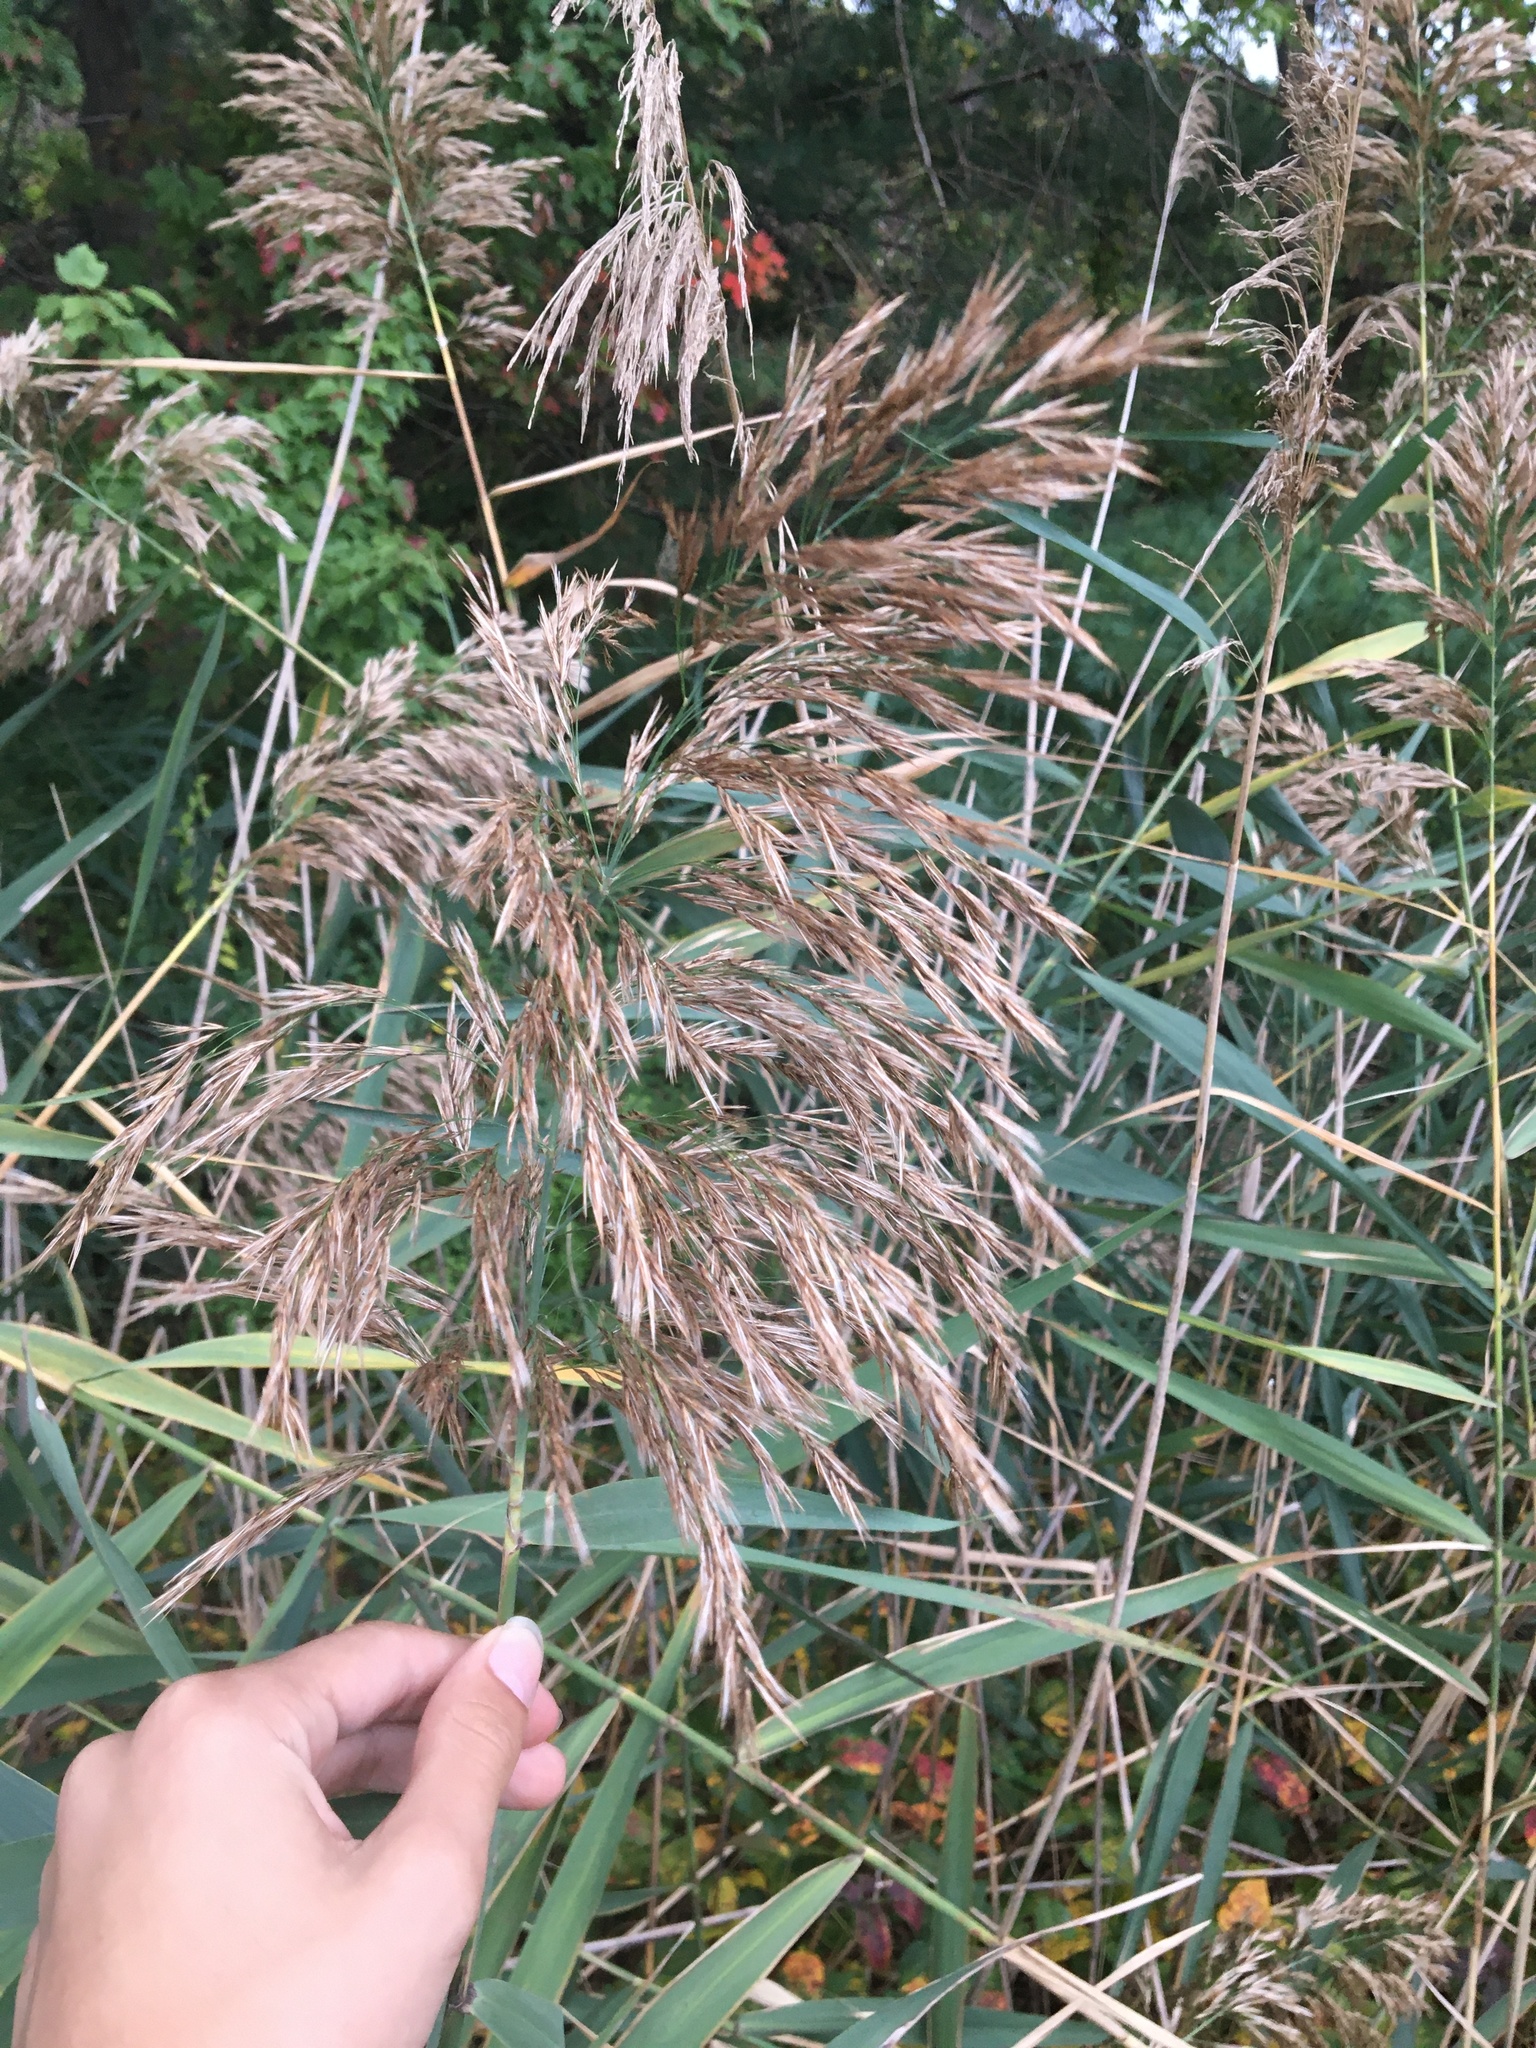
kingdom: Plantae
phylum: Tracheophyta
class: Liliopsida
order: Poales
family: Poaceae
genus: Phragmites
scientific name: Phragmites australis
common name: Common reed
